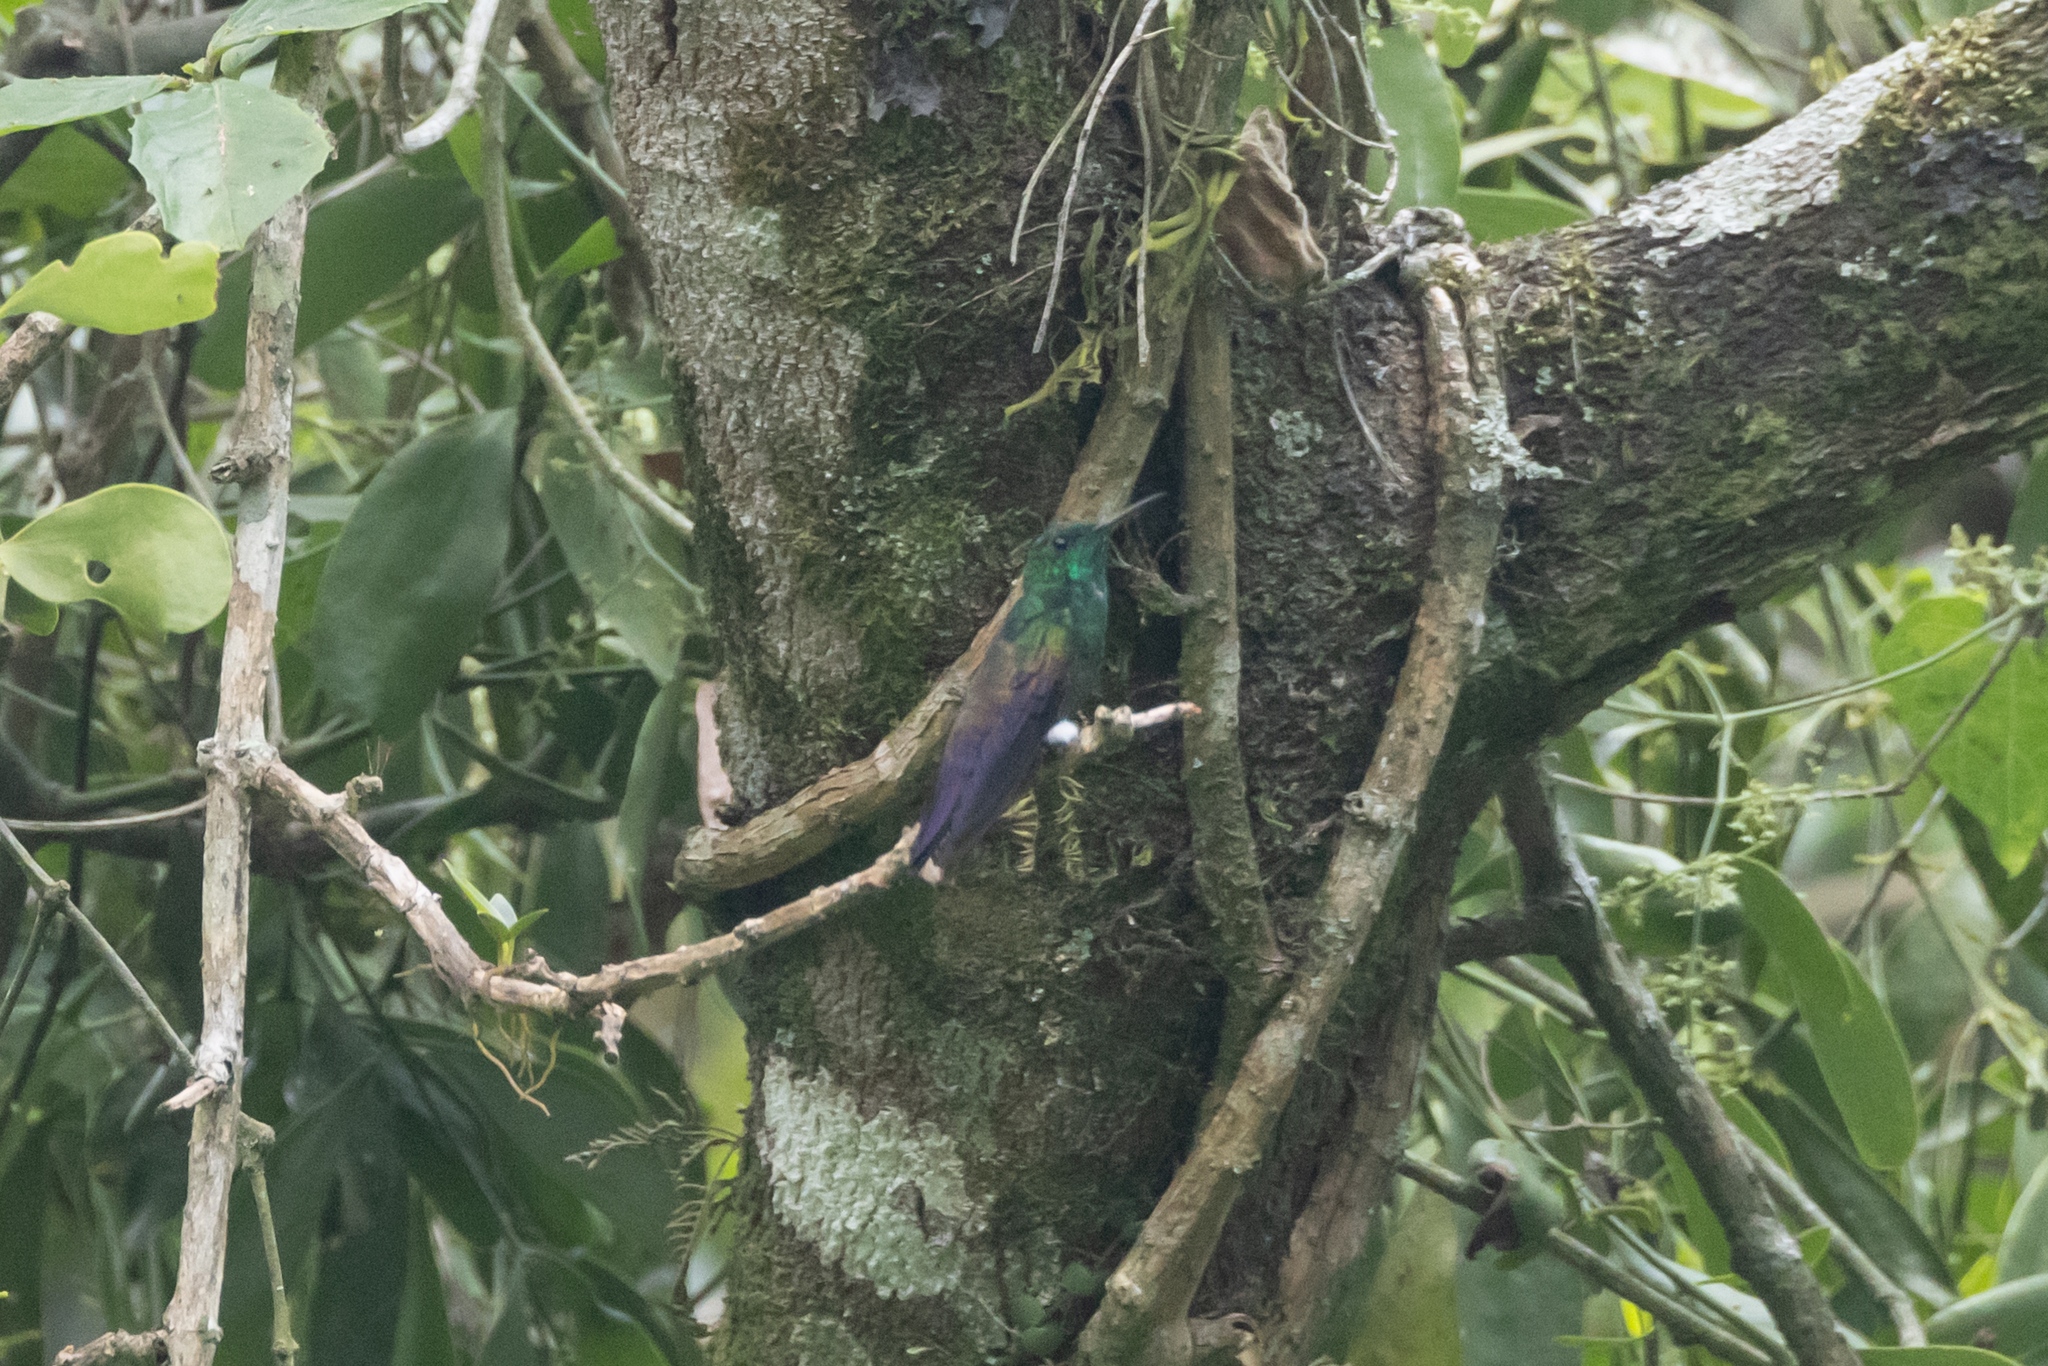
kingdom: Animalia
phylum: Chordata
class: Aves
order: Apodiformes
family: Trochilidae
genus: Saucerottia
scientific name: Saucerottia cyanura
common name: Blue-tailed hummingbird
